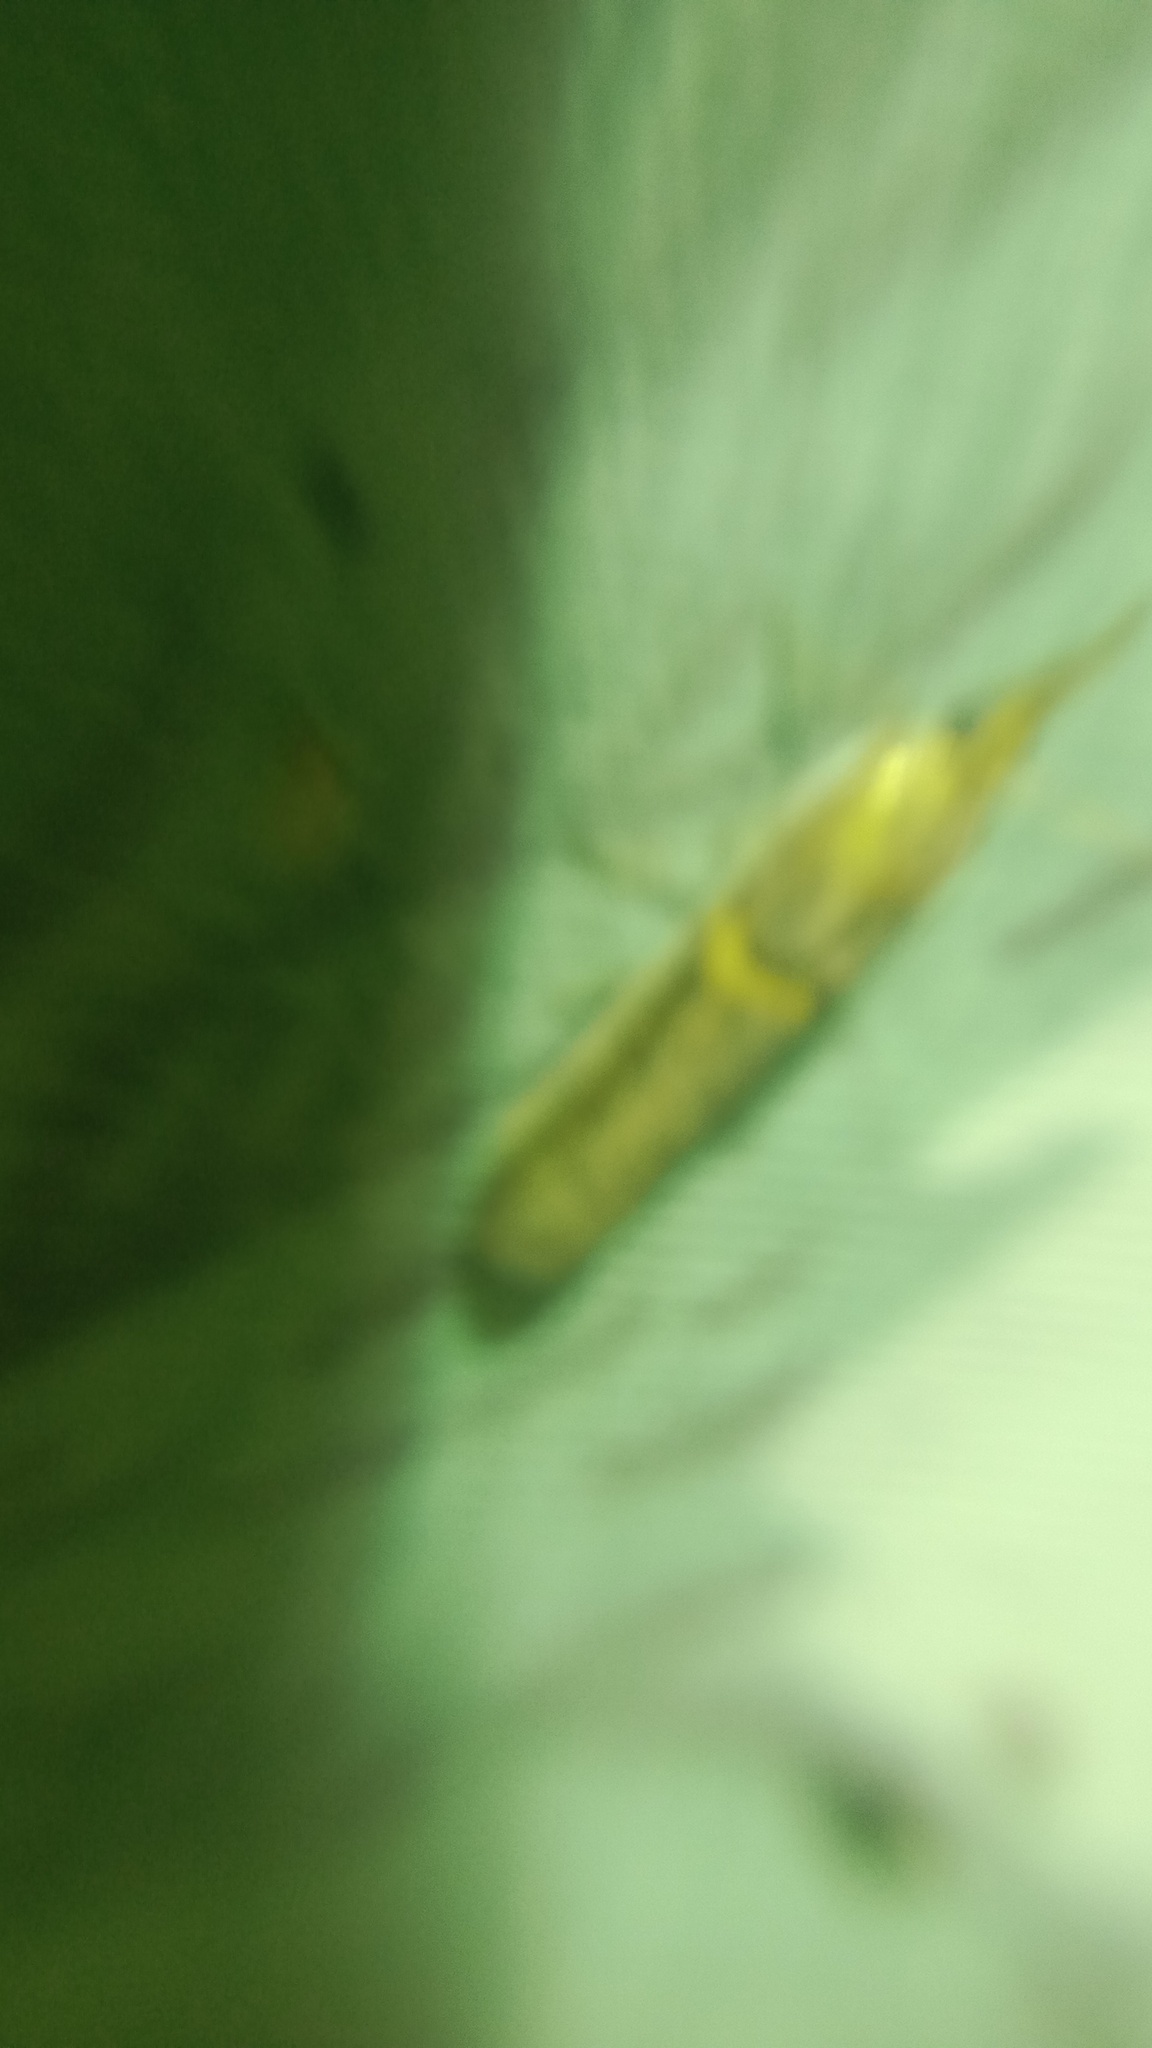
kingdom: Animalia
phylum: Arthropoda
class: Insecta
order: Lepidoptera
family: Pyralidae
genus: Etiella
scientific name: Etiella zinckenella
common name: Gold-banded etiella moth
